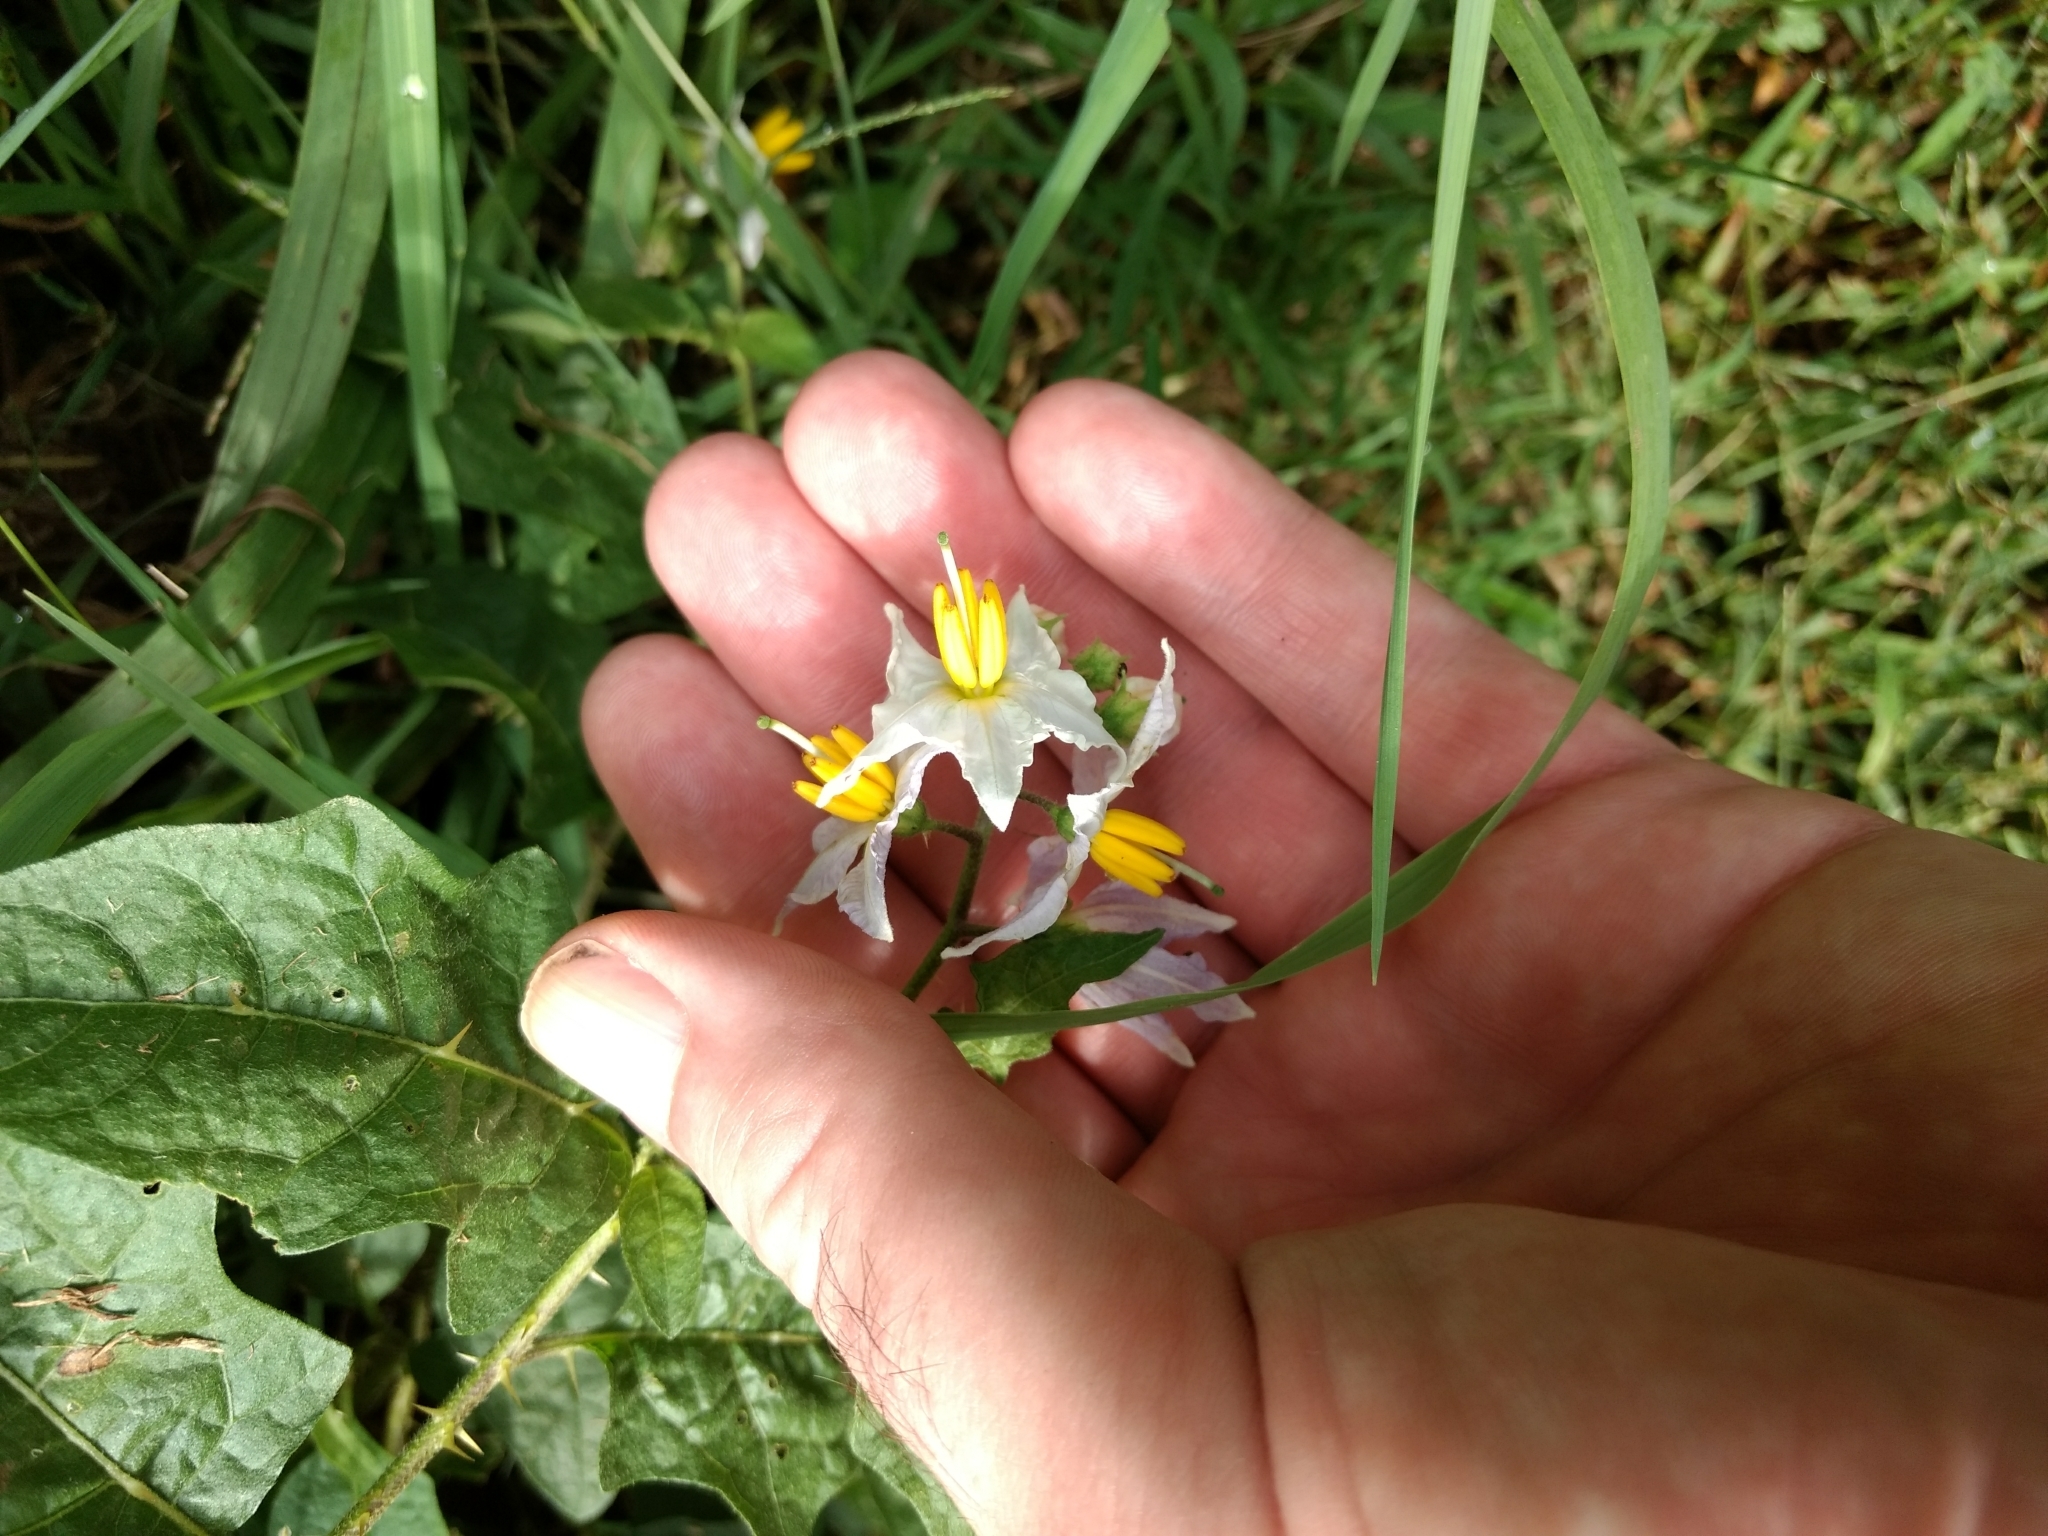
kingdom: Plantae
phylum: Tracheophyta
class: Magnoliopsida
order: Solanales
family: Solanaceae
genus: Solanum
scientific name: Solanum carolinense
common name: Horse-nettle
